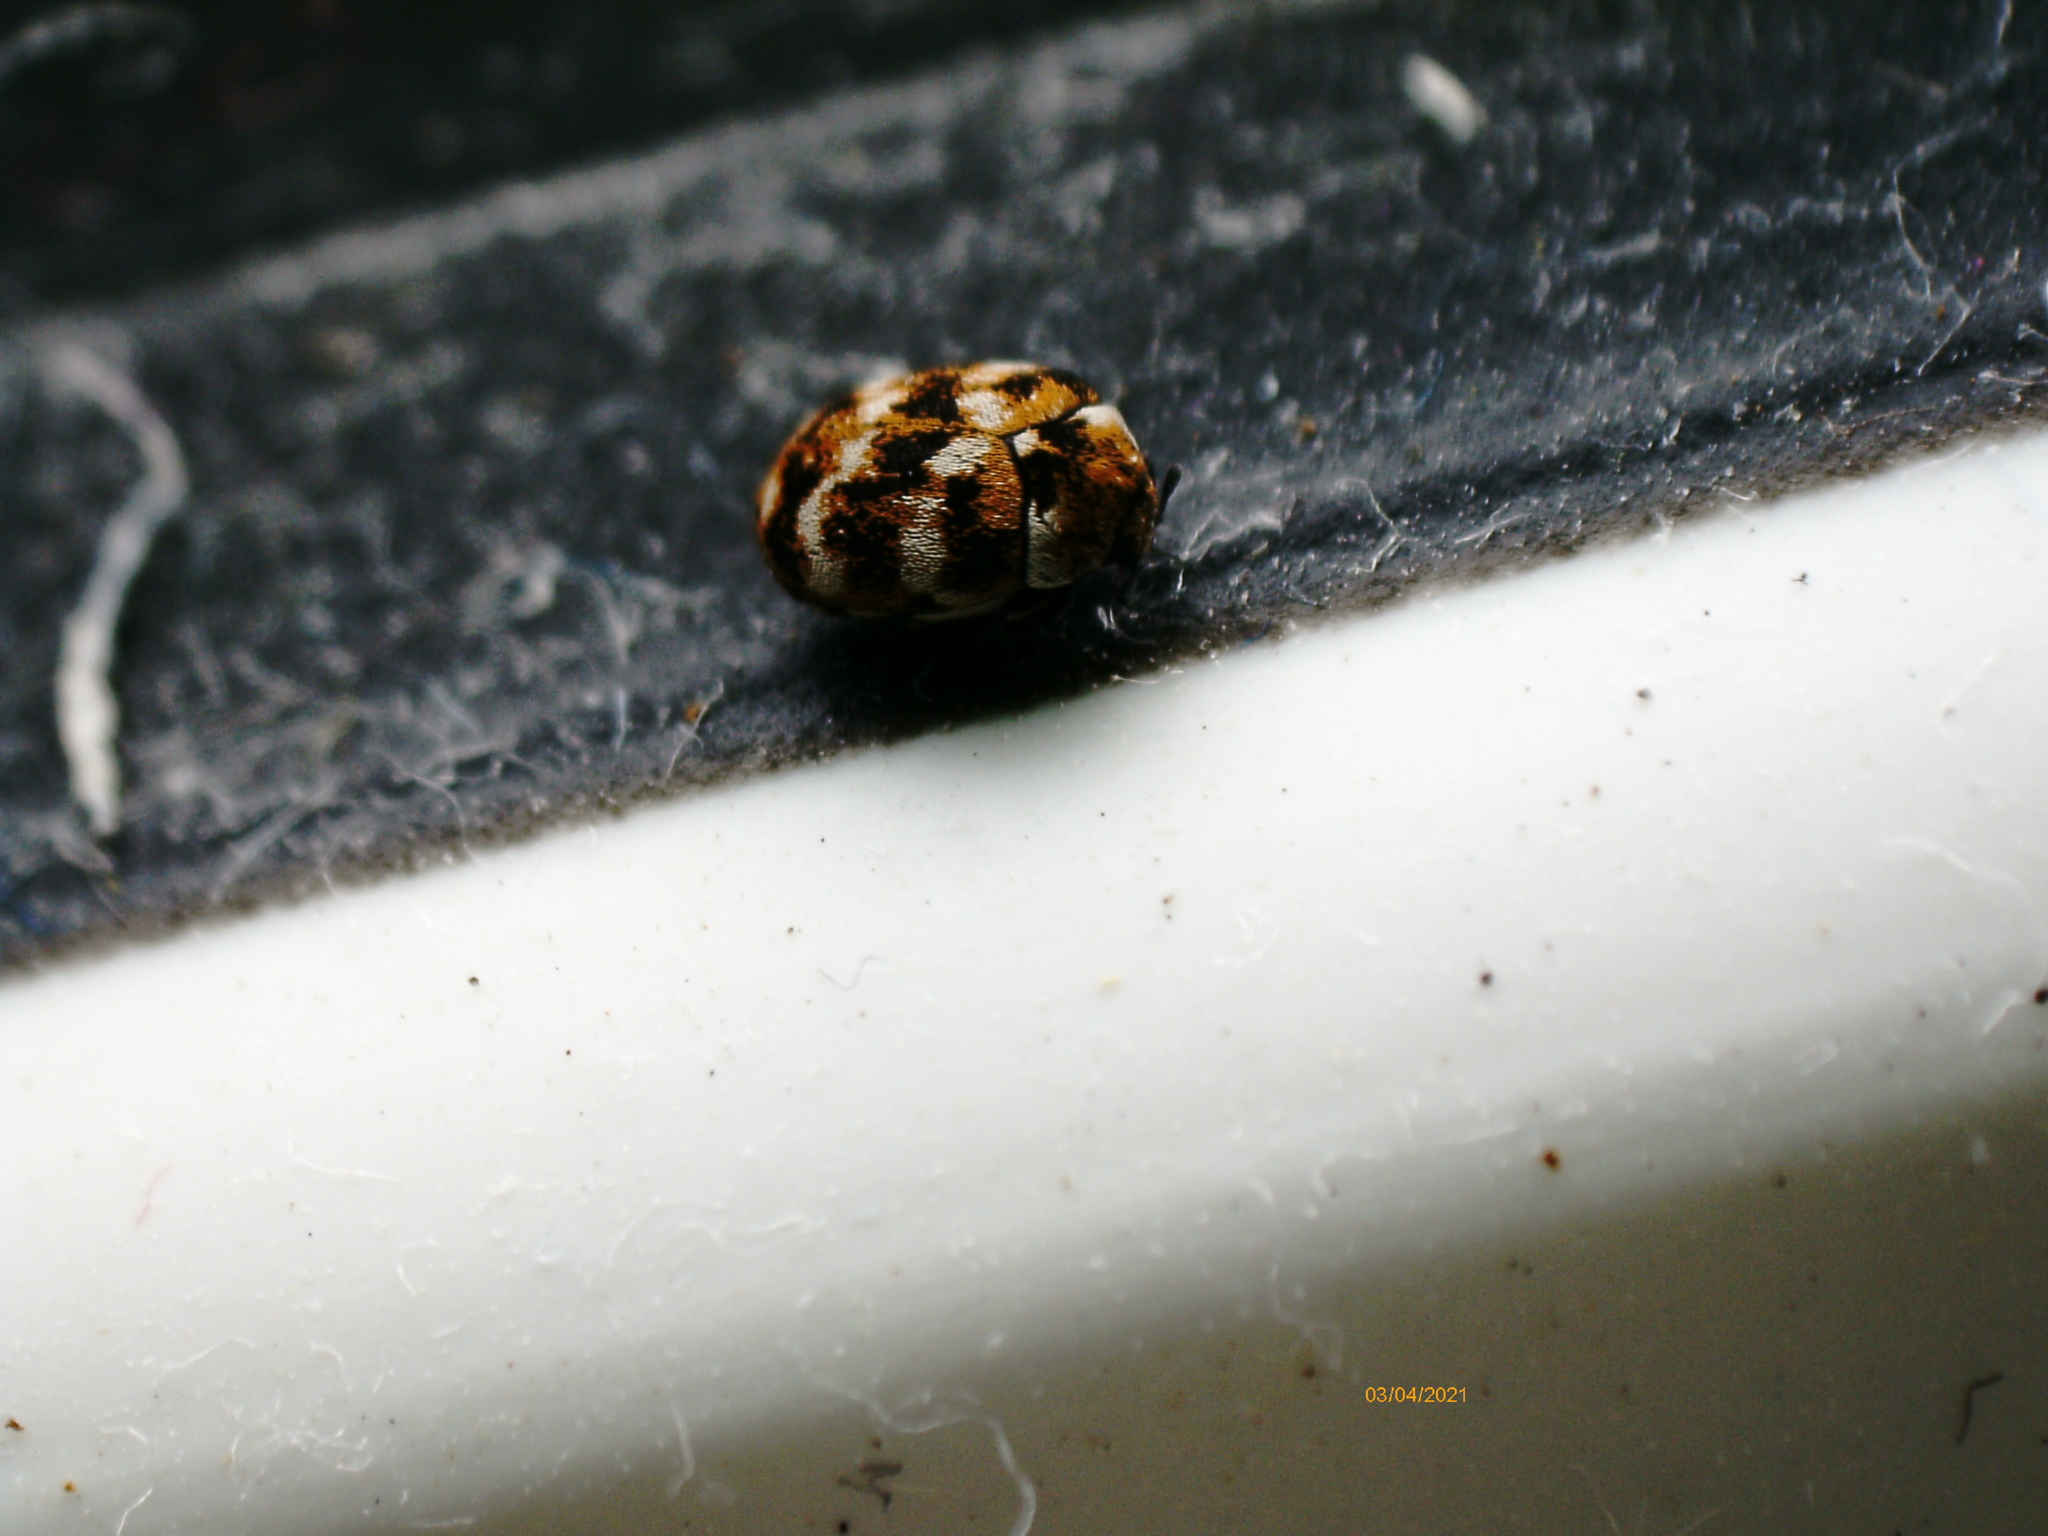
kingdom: Animalia
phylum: Arthropoda
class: Insecta
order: Coleoptera
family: Dermestidae
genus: Anthrenus
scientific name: Anthrenus verbasci
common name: Varied carpet beetle
